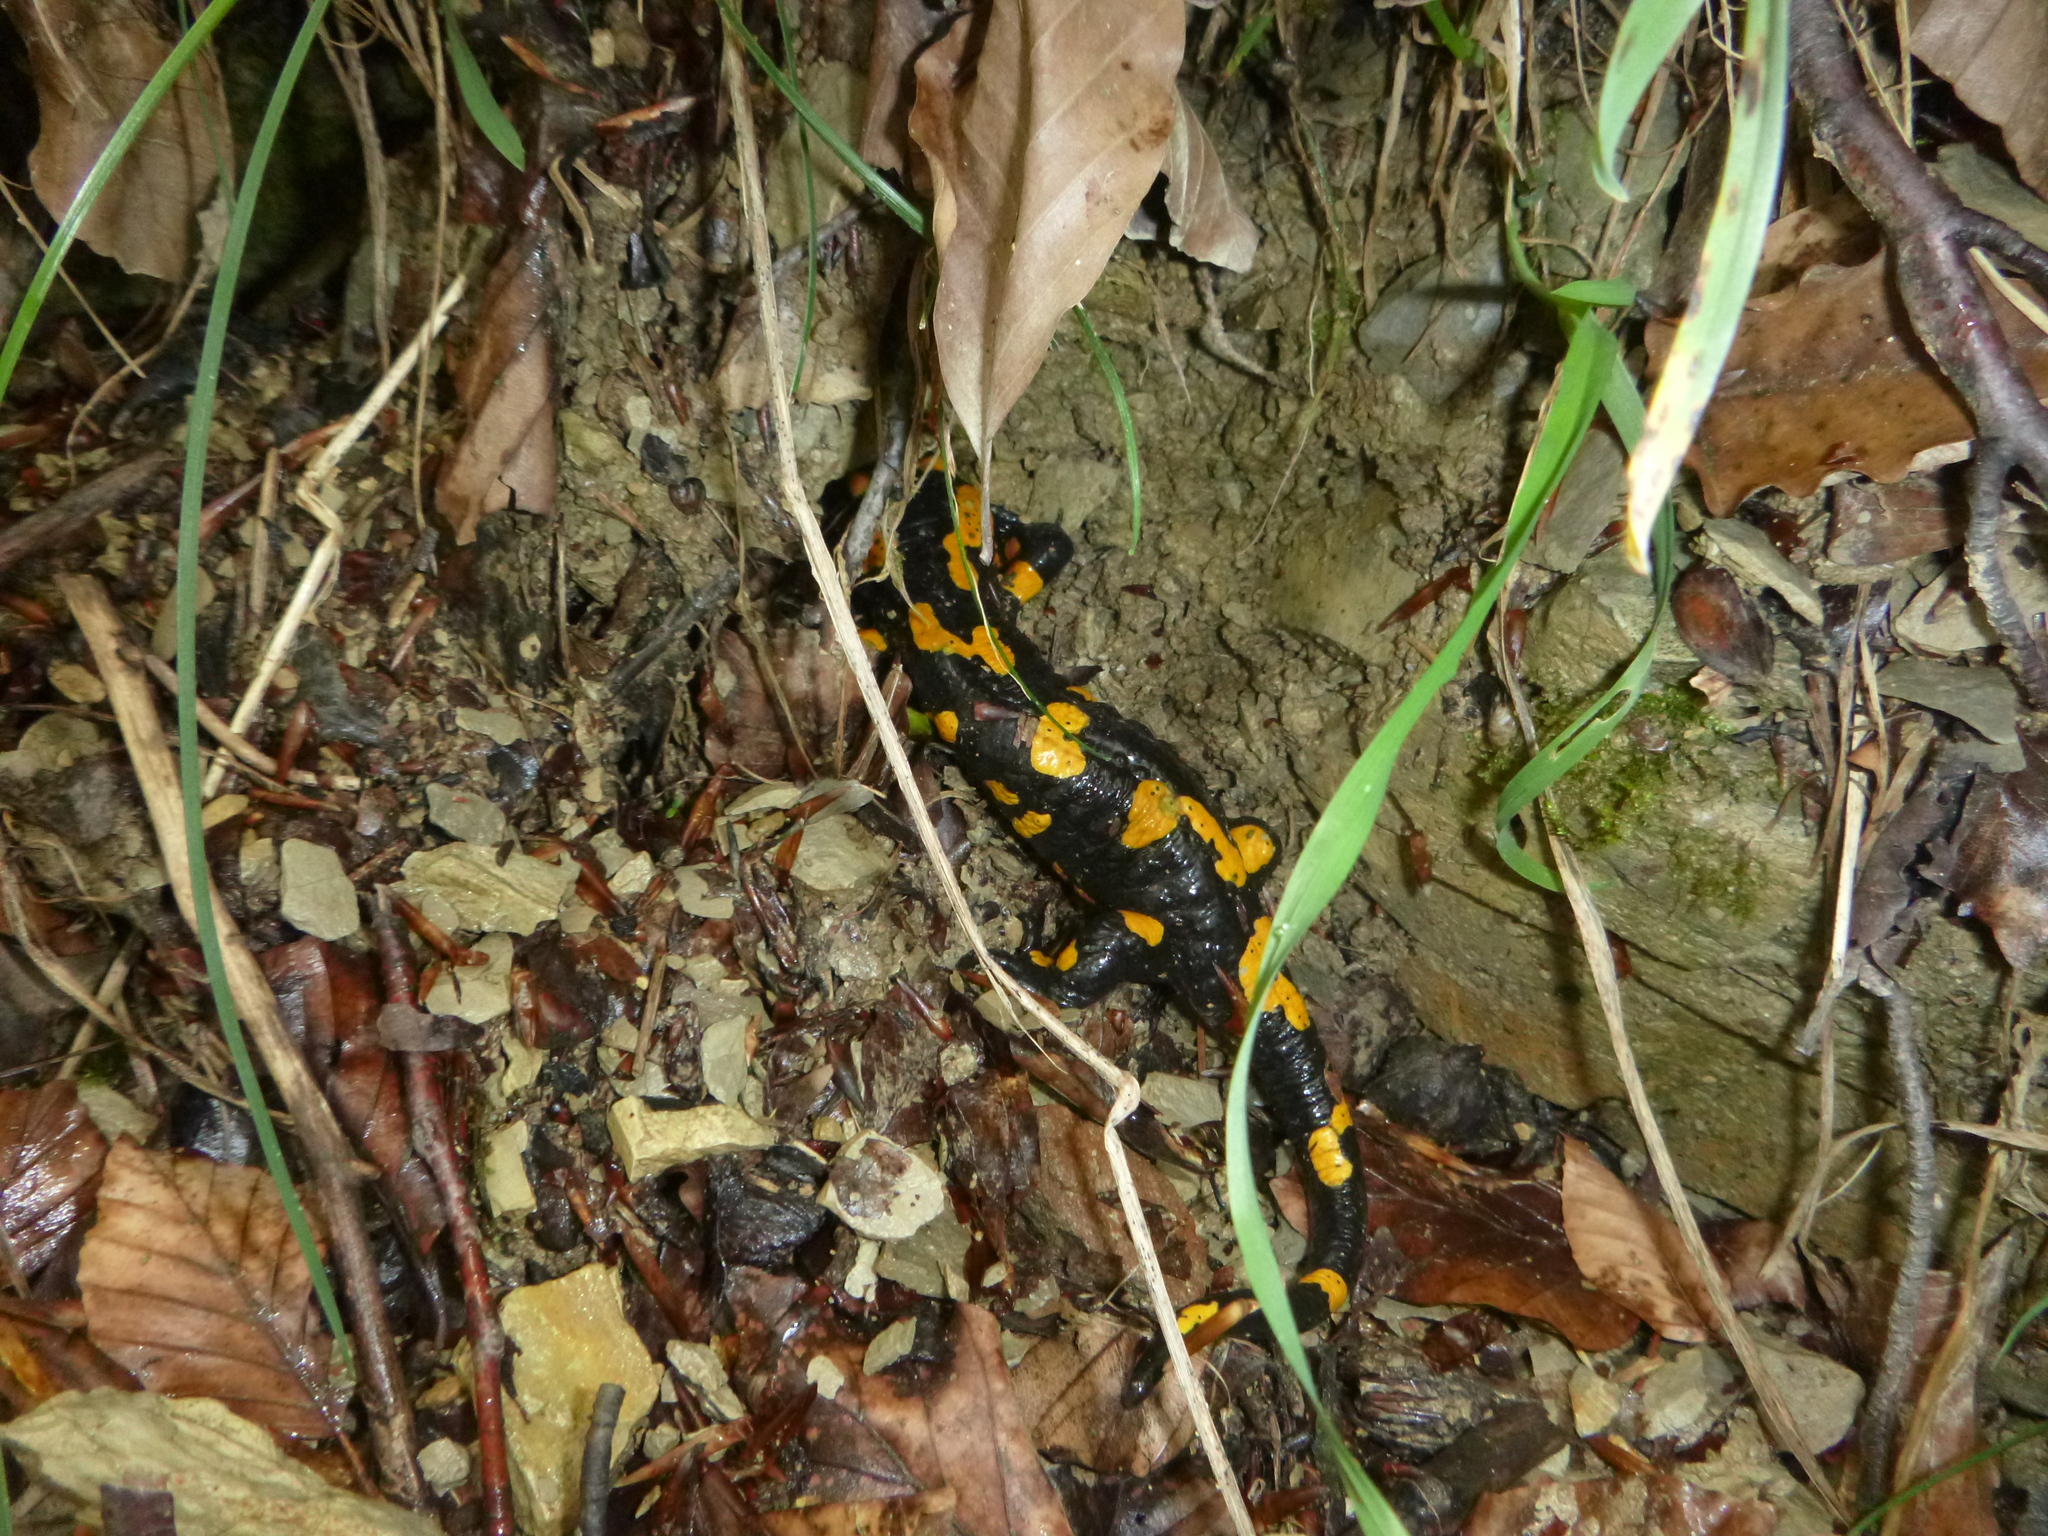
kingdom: Animalia
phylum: Chordata
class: Amphibia
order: Caudata
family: Salamandridae
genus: Salamandra
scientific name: Salamandra salamandra
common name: Fire salamander
